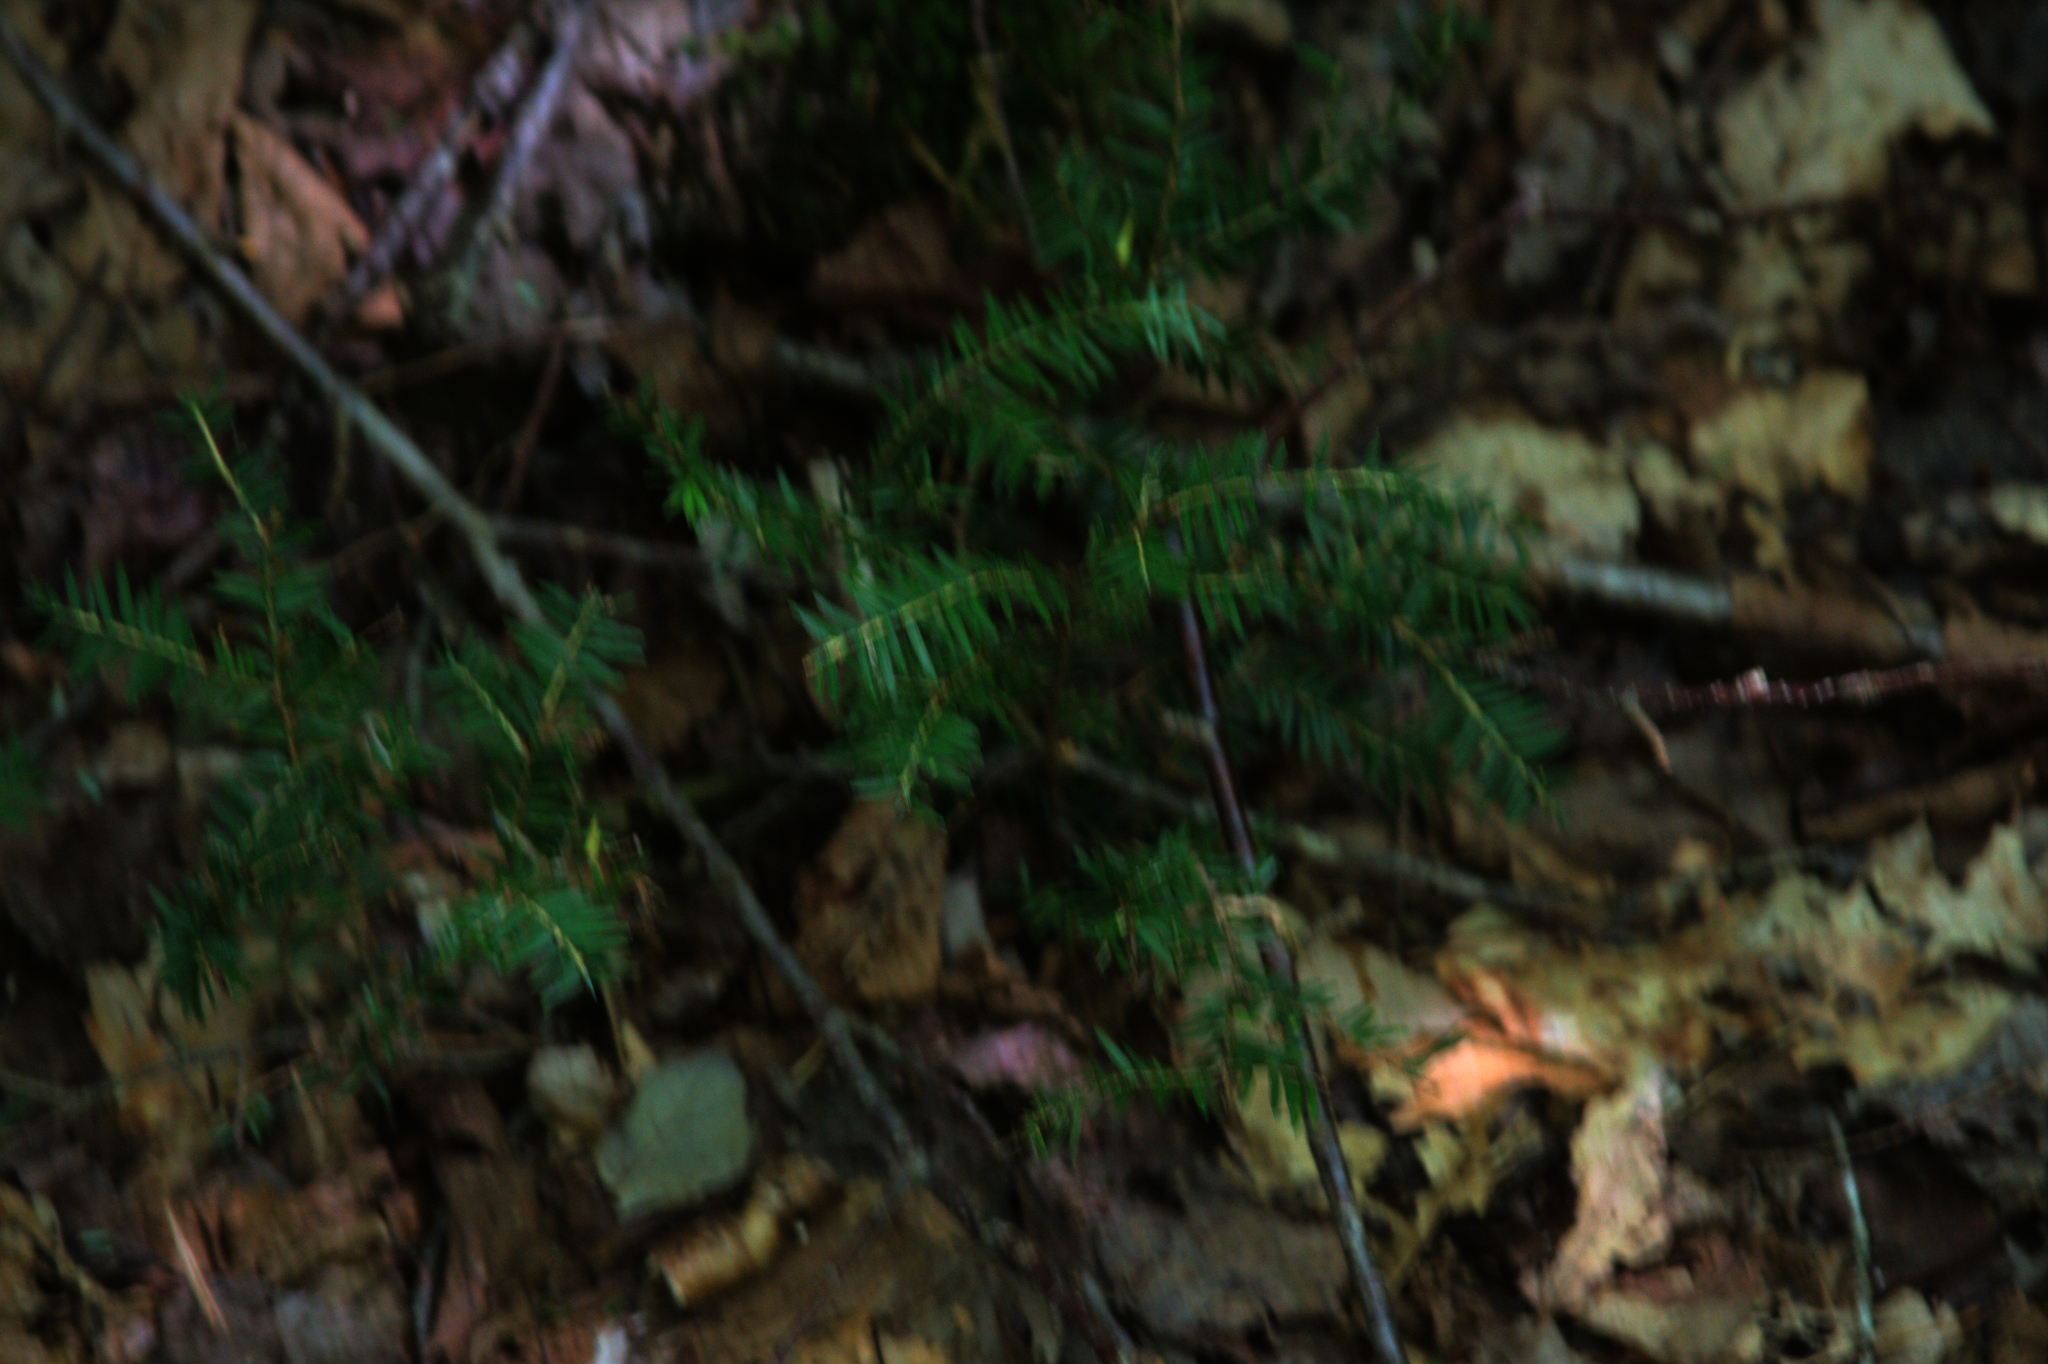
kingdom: Plantae
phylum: Tracheophyta
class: Pinopsida
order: Pinales
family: Pinaceae
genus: Tsuga
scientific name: Tsuga canadensis
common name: Eastern hemlock
